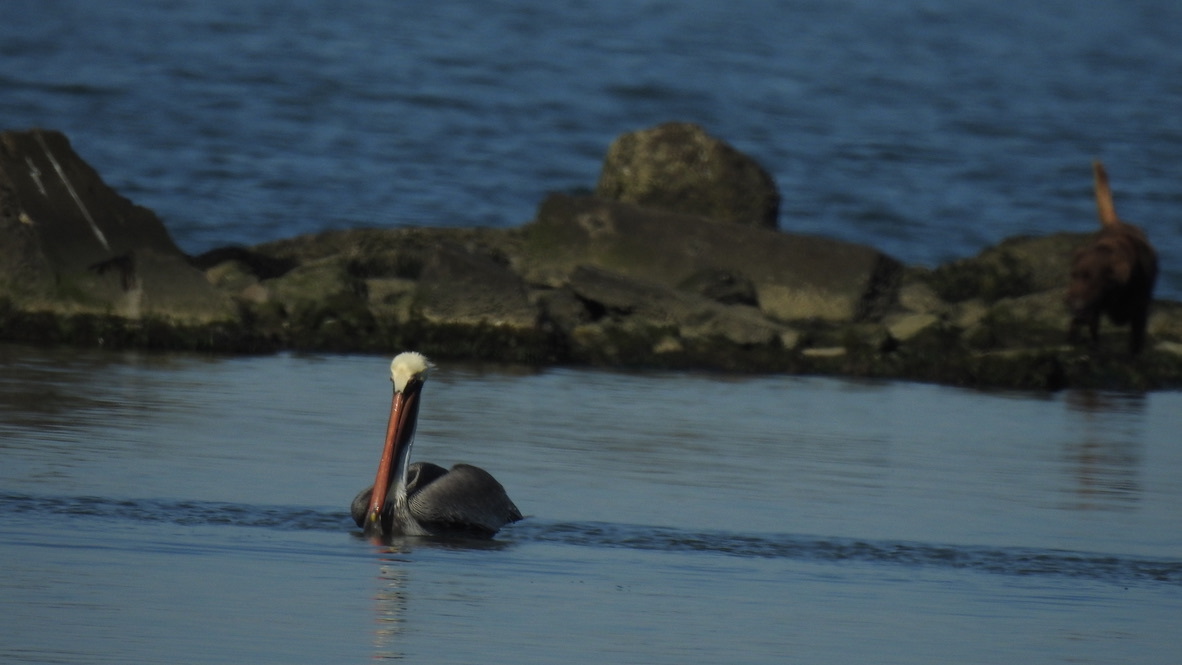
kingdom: Animalia
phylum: Chordata
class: Aves
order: Pelecaniformes
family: Pelecanidae
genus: Pelecanus
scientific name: Pelecanus occidentalis
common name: Brown pelican
